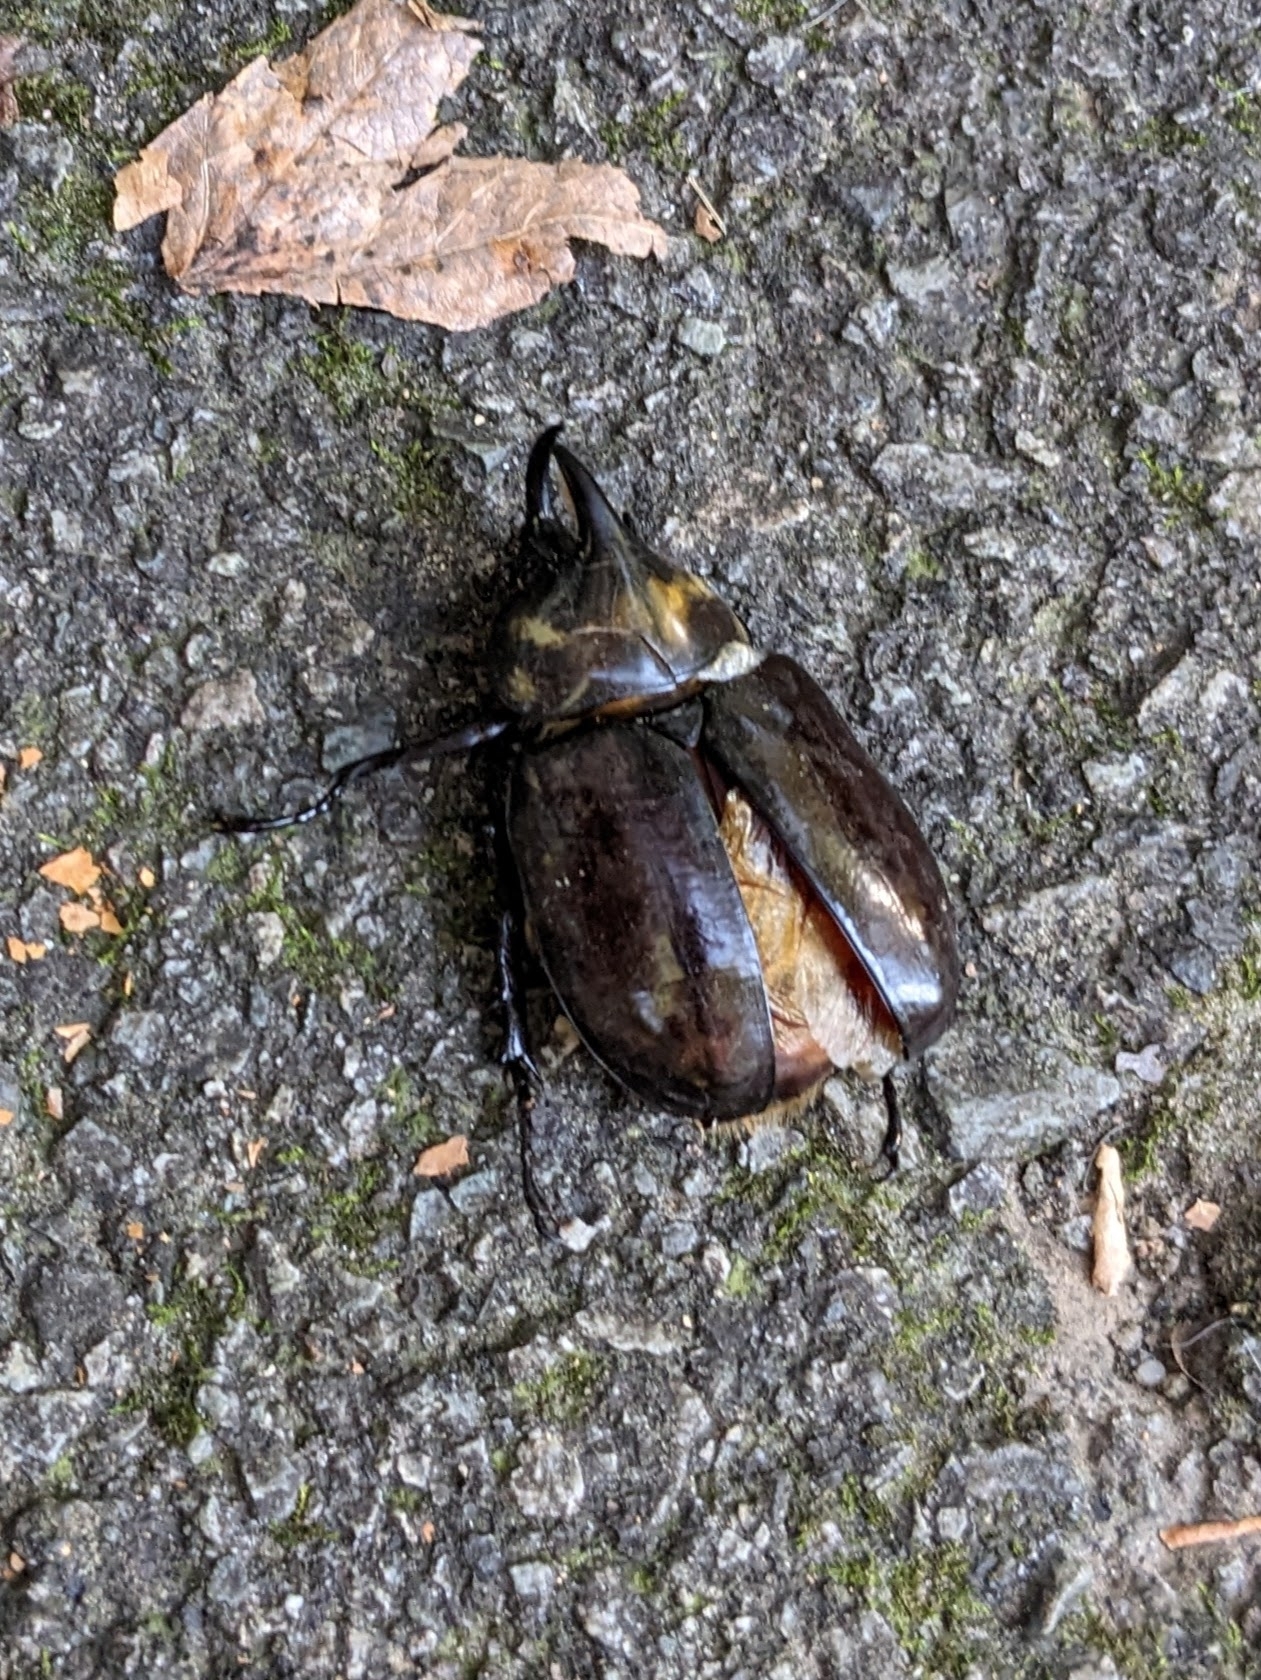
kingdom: Animalia
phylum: Arthropoda
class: Insecta
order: Coleoptera
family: Scarabaeidae
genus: Dynastes
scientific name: Dynastes tityus
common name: Eastern hercules beetle
